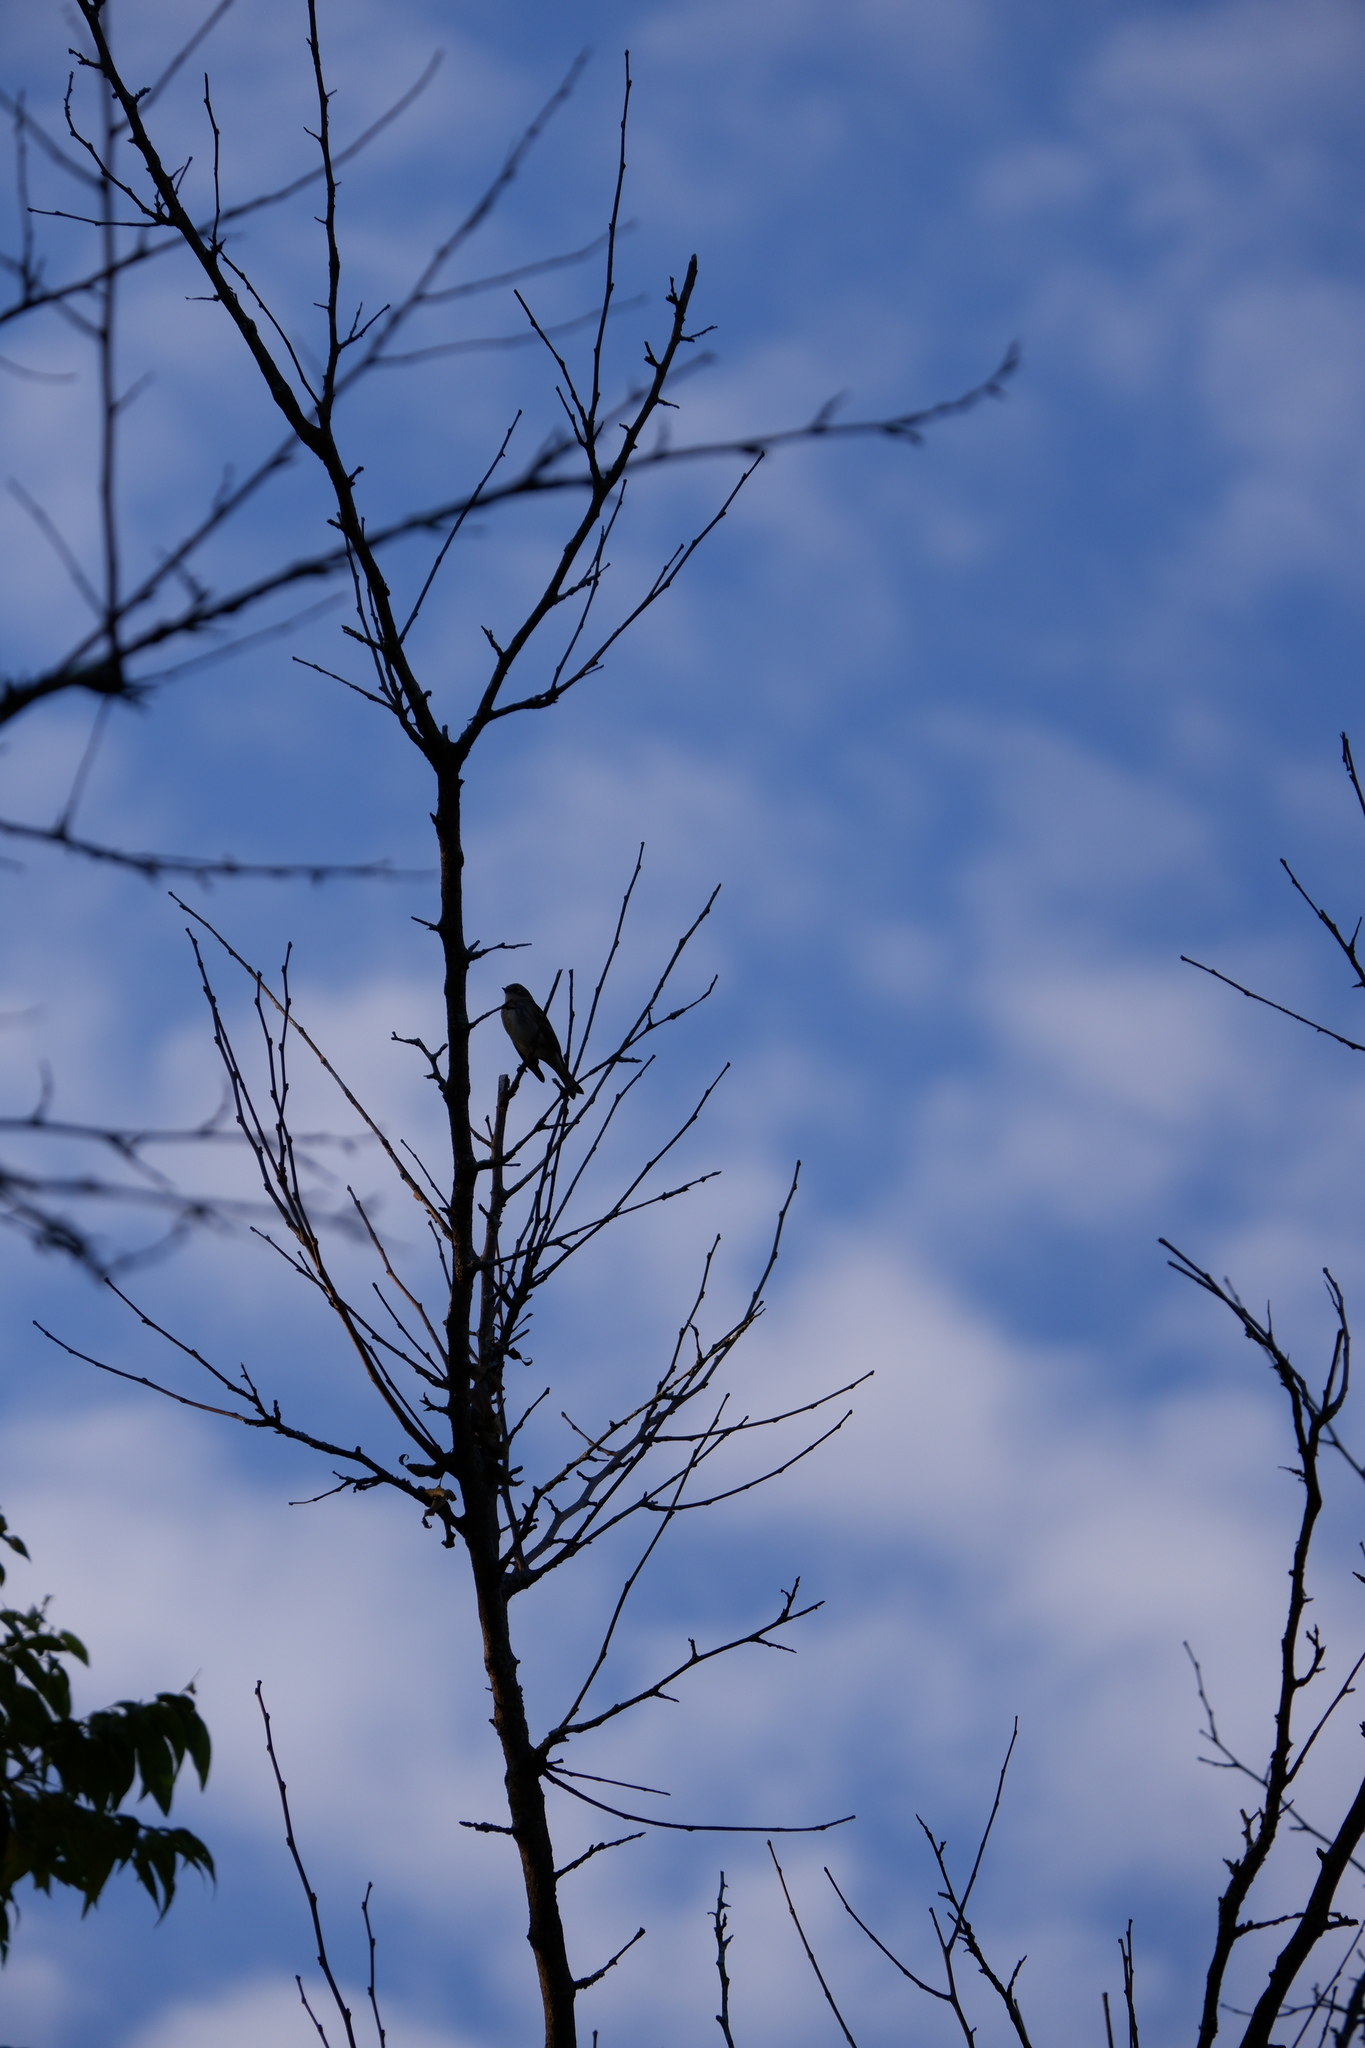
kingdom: Animalia
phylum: Chordata
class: Aves
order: Passeriformes
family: Parulidae
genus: Setophaga
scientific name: Setophaga coronata
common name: Myrtle warbler
